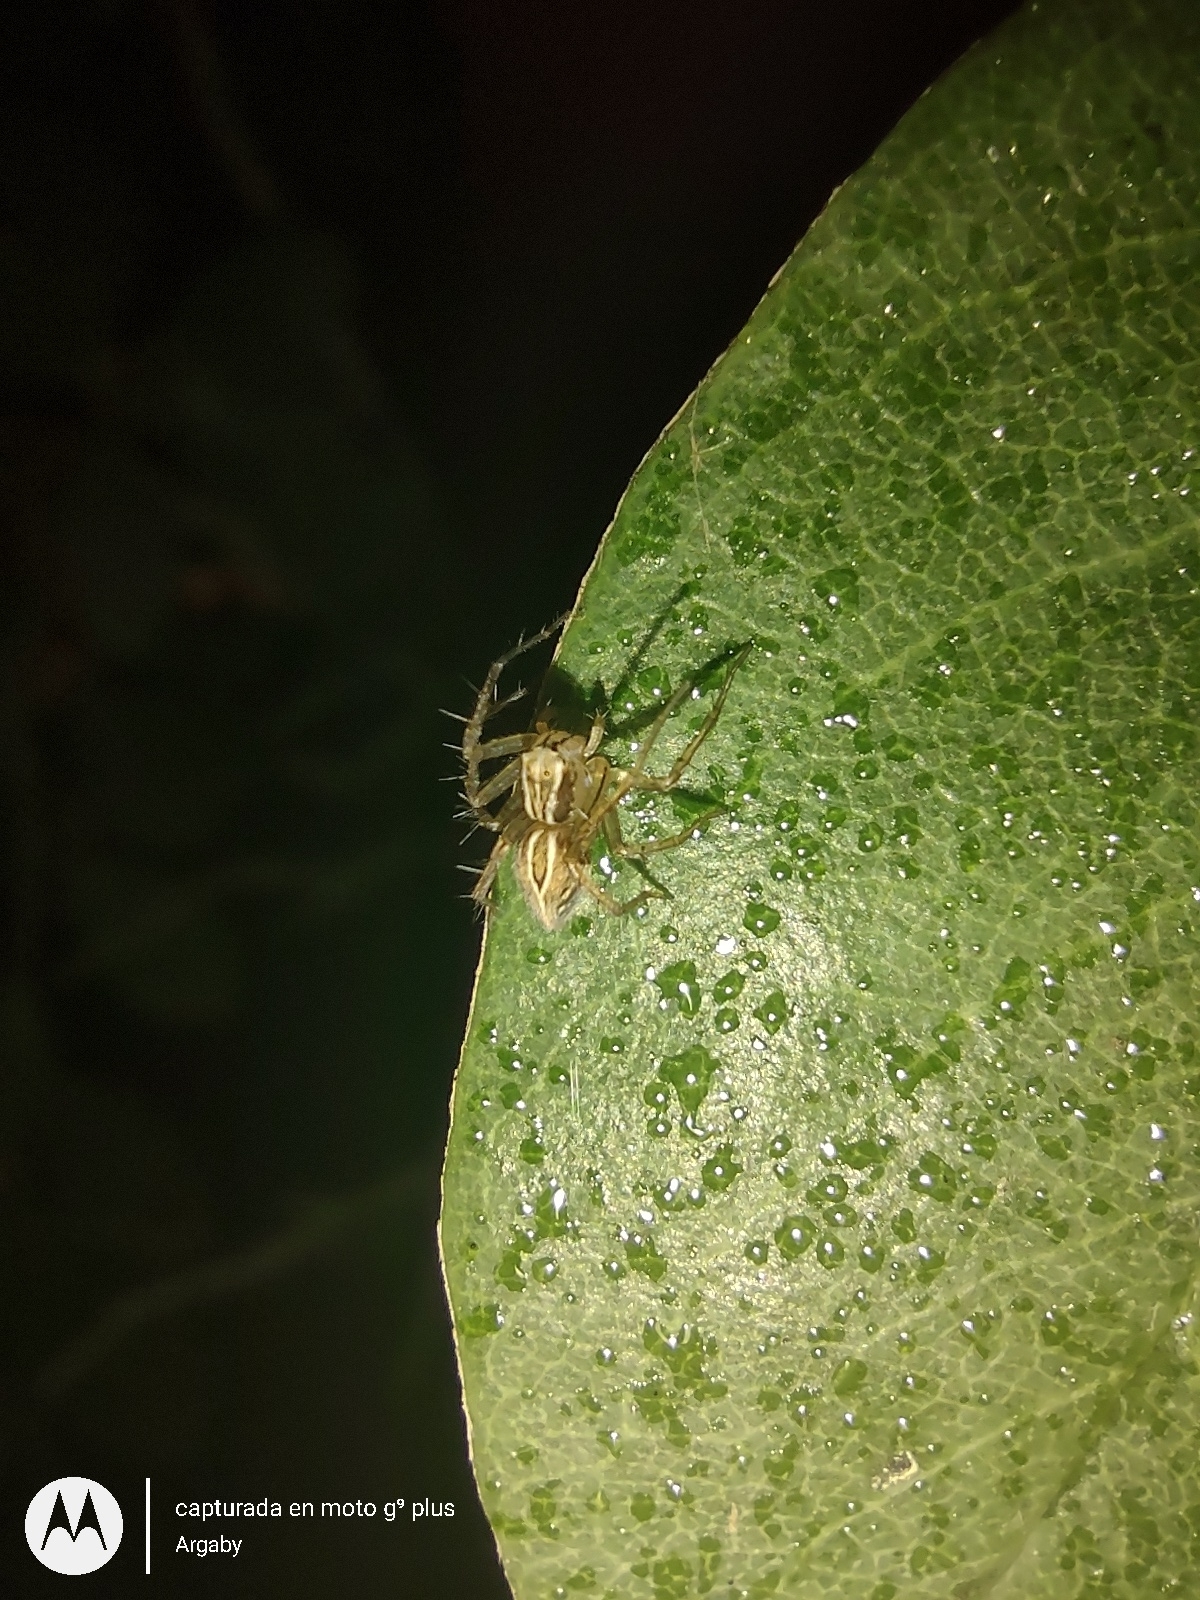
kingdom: Animalia
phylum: Arthropoda
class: Arachnida
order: Araneae
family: Oxyopidae
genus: Oxyopes
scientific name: Oxyopes salticus
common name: Lynx spiders
